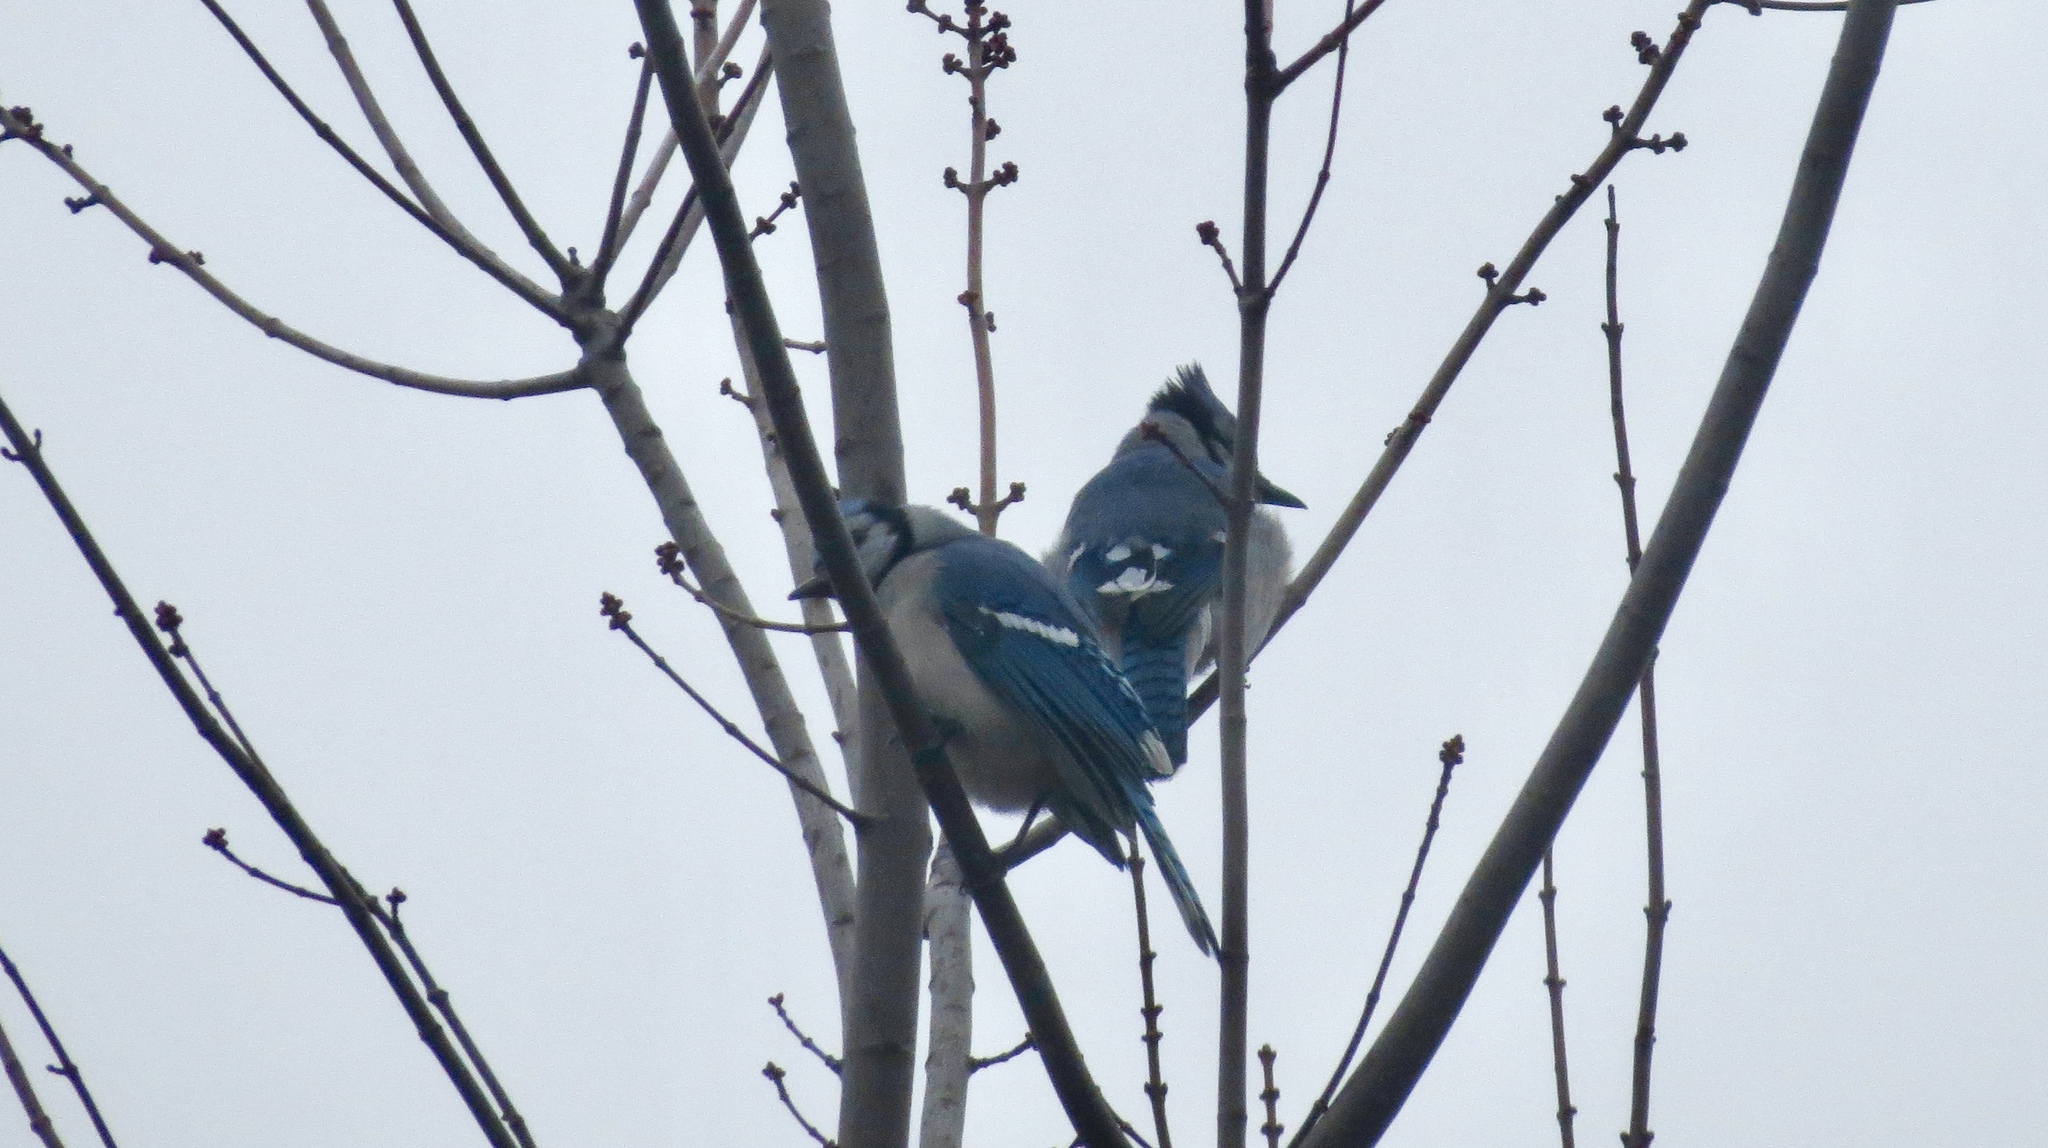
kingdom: Animalia
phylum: Chordata
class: Aves
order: Passeriformes
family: Corvidae
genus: Cyanocitta
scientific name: Cyanocitta cristata
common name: Blue jay
